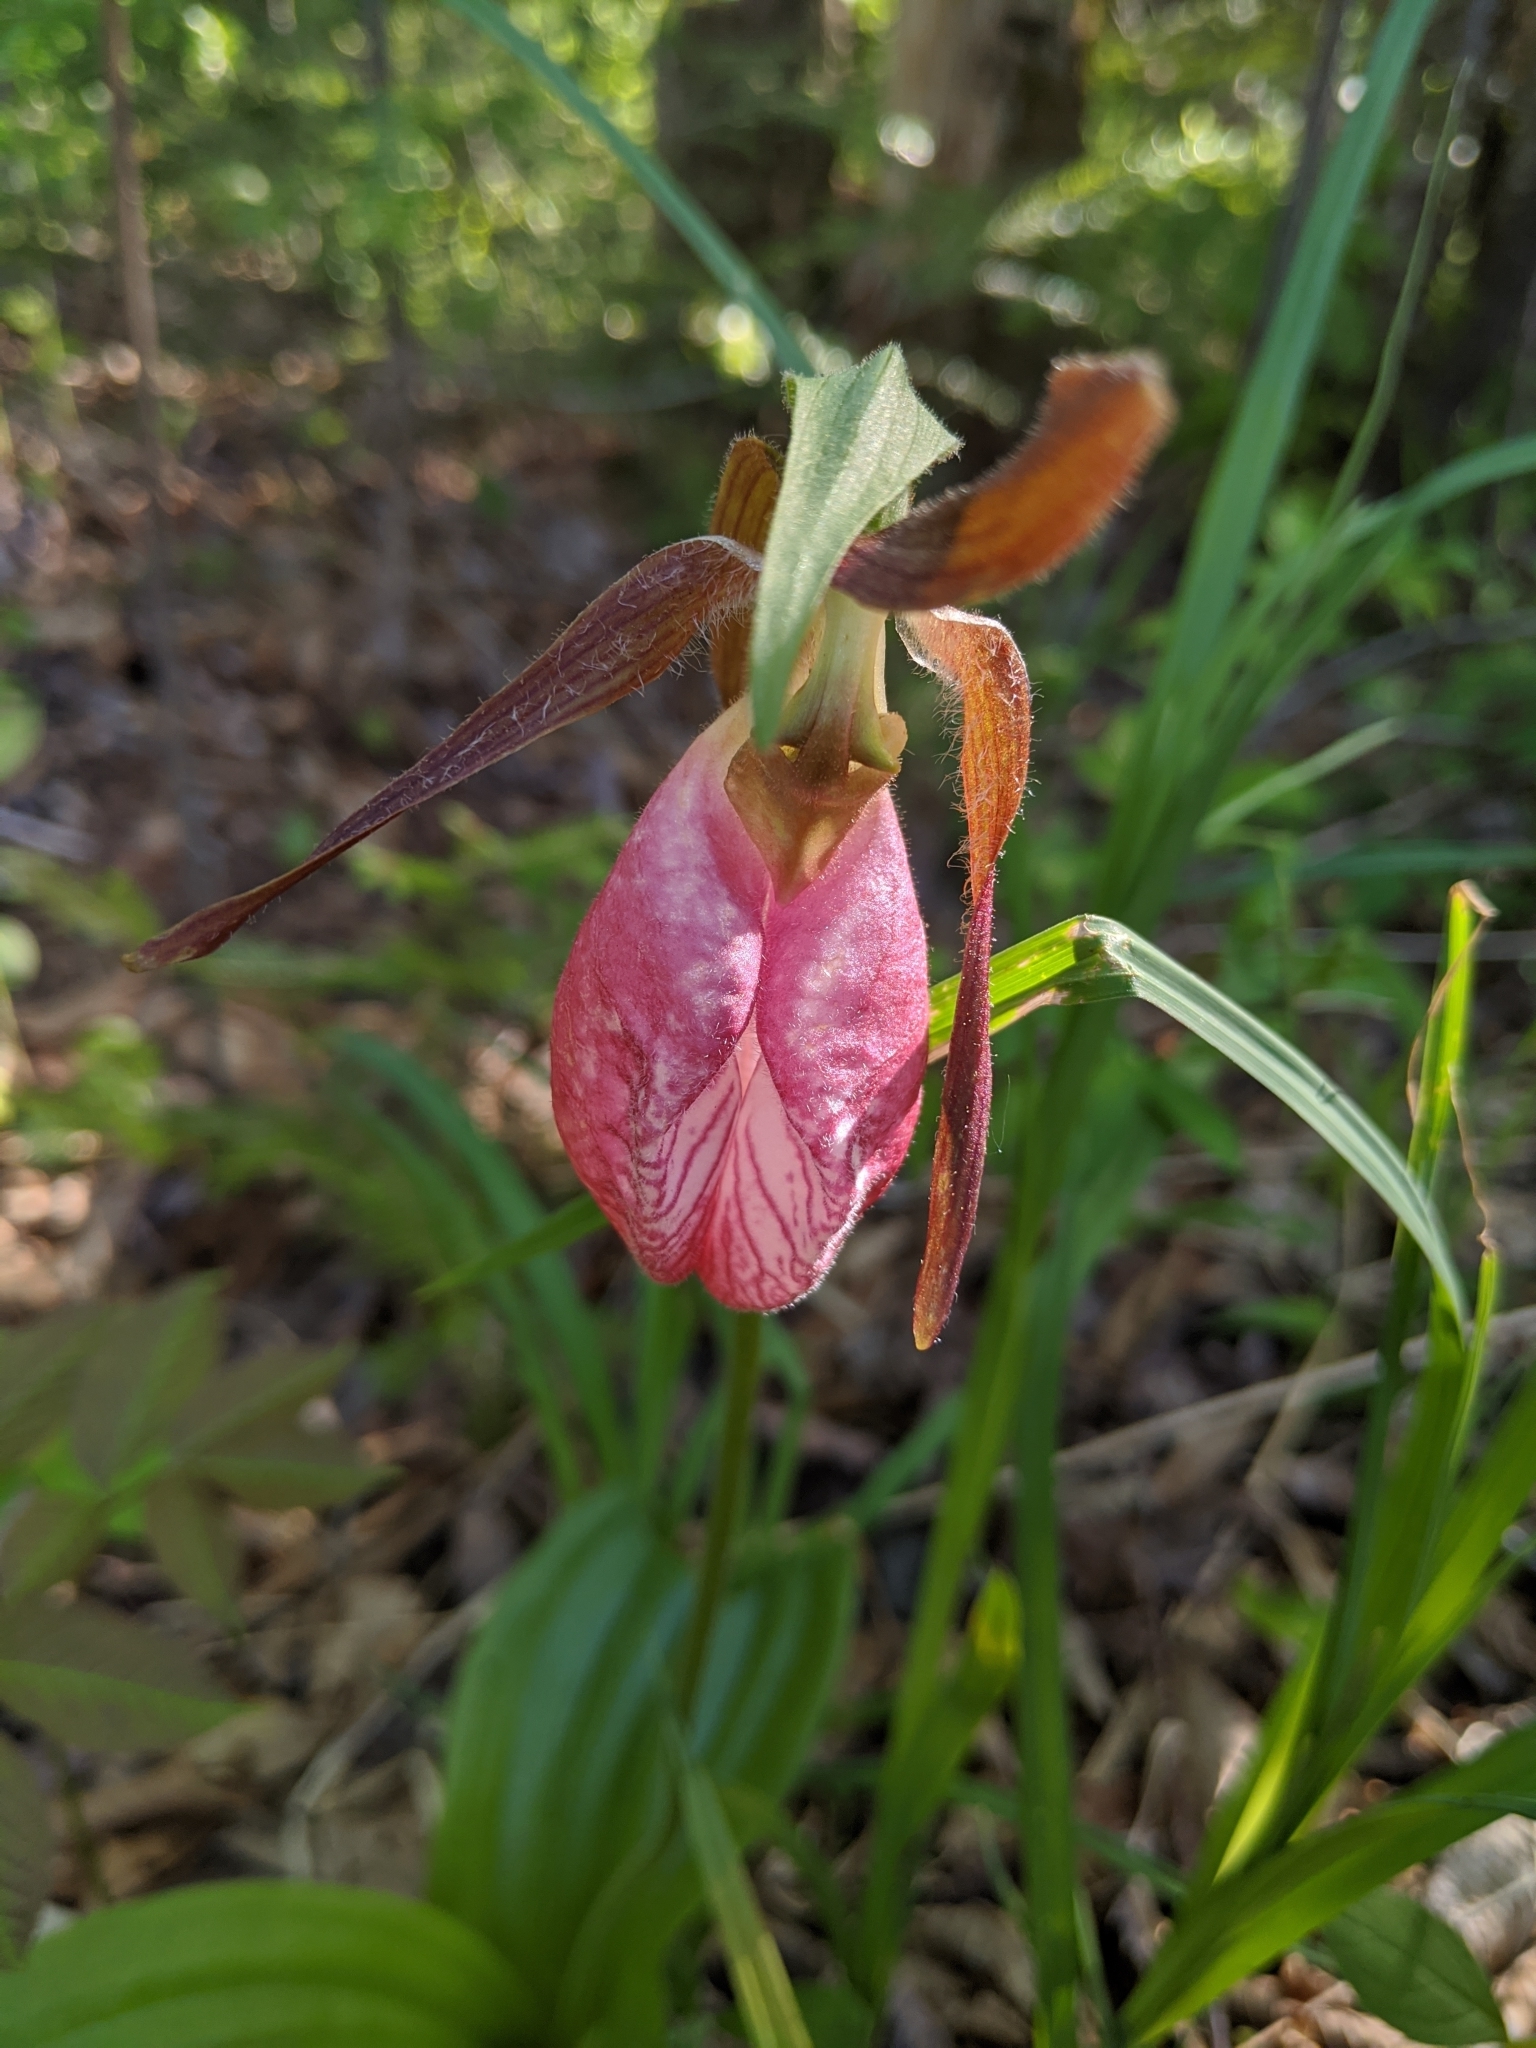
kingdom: Plantae
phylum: Tracheophyta
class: Liliopsida
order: Asparagales
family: Orchidaceae
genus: Cypripedium
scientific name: Cypripedium acaule
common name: Pink lady's-slipper
